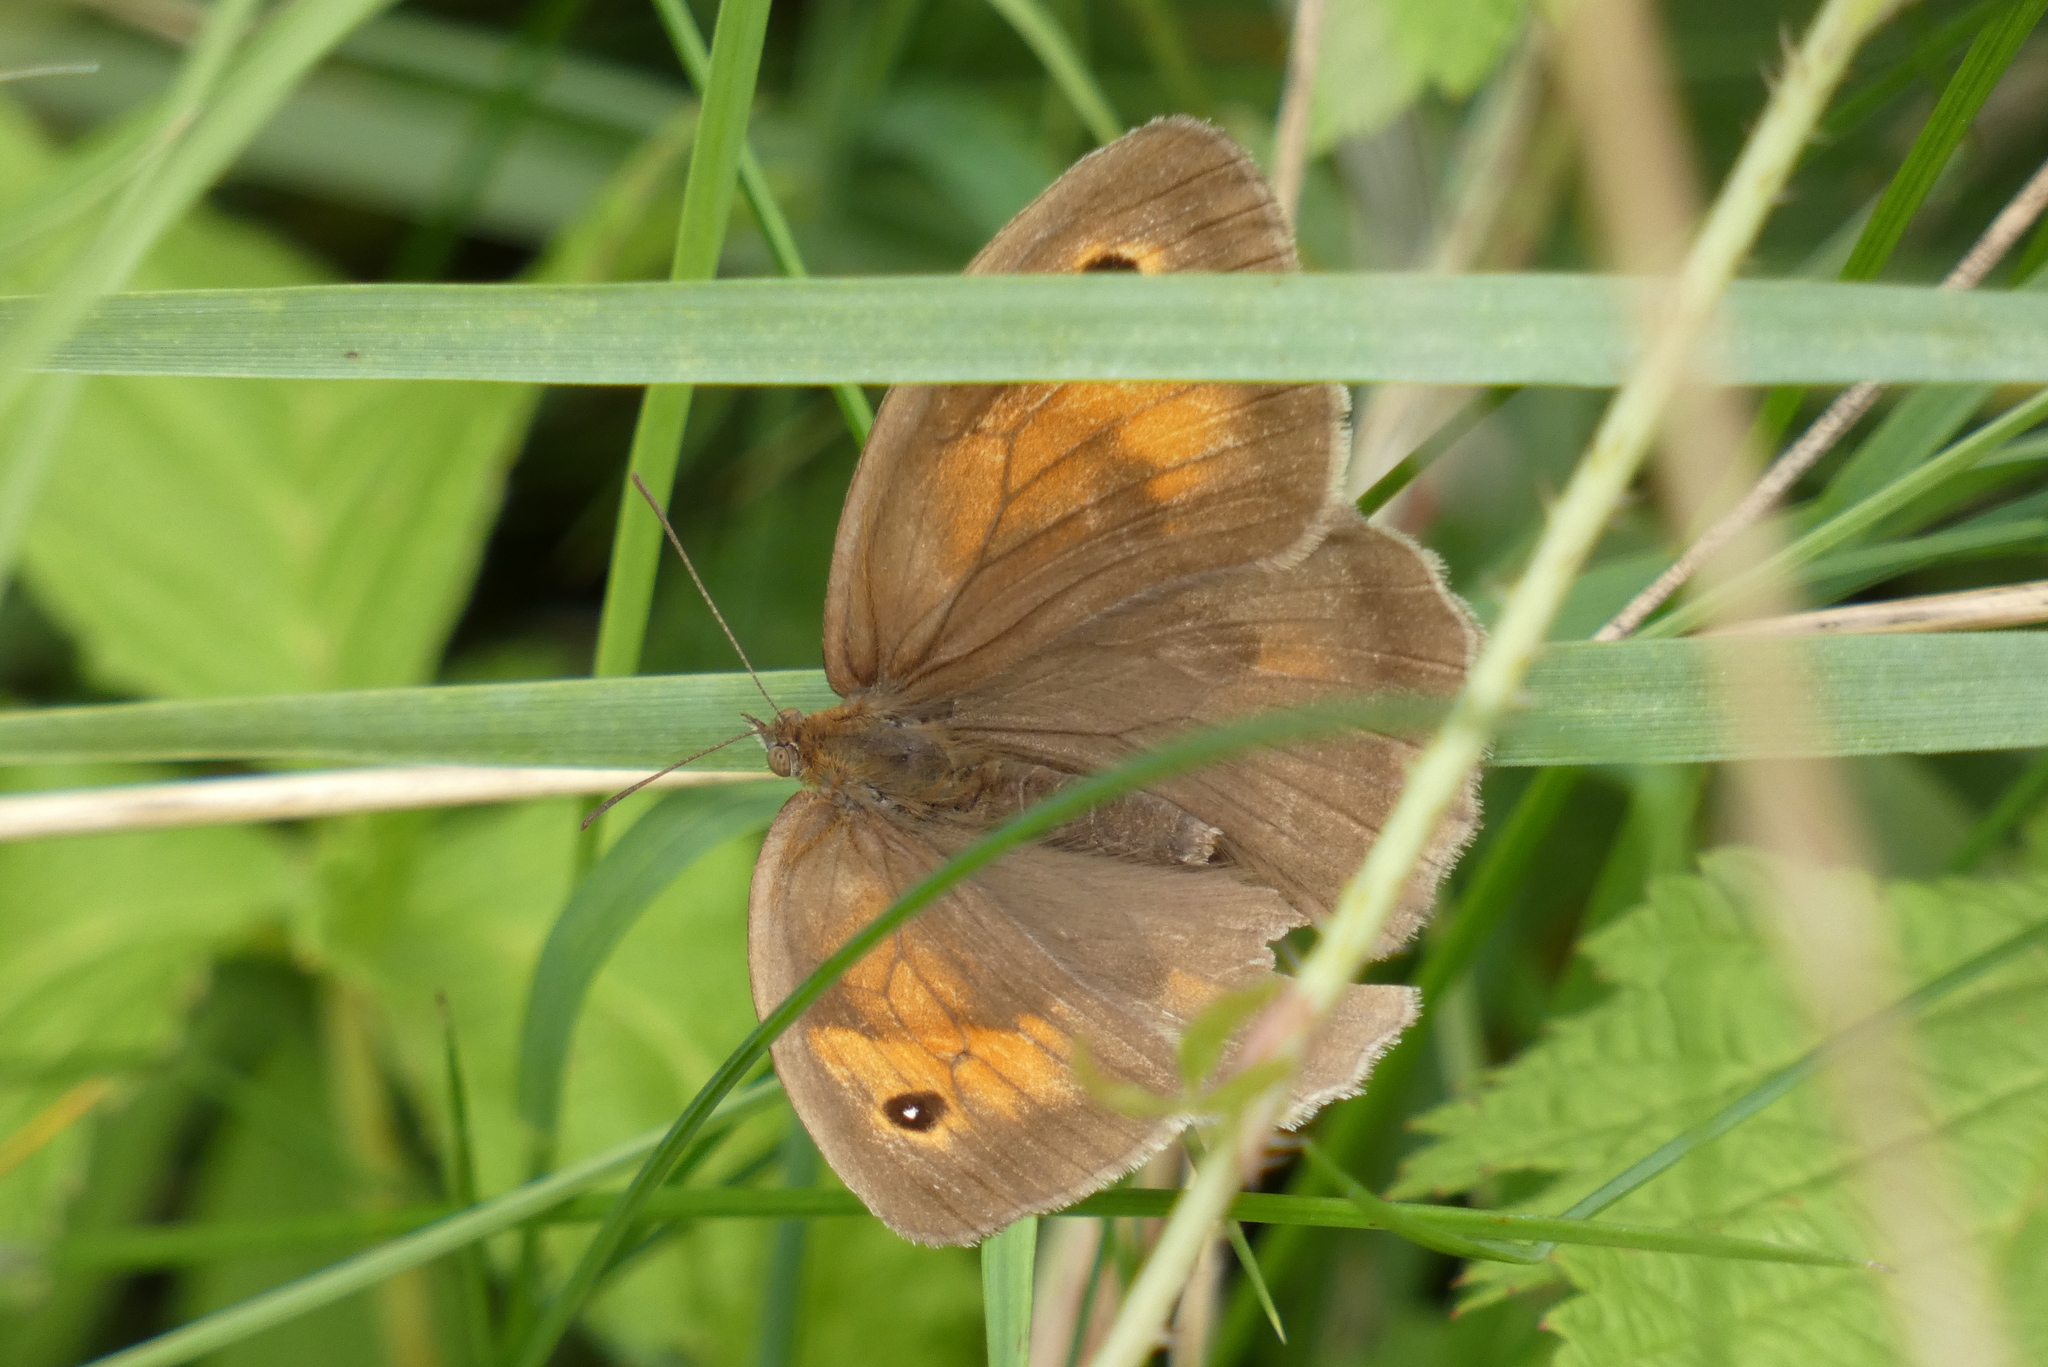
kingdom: Animalia
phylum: Arthropoda
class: Insecta
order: Lepidoptera
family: Nymphalidae
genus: Maniola
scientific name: Maniola jurtina
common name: Meadow brown
